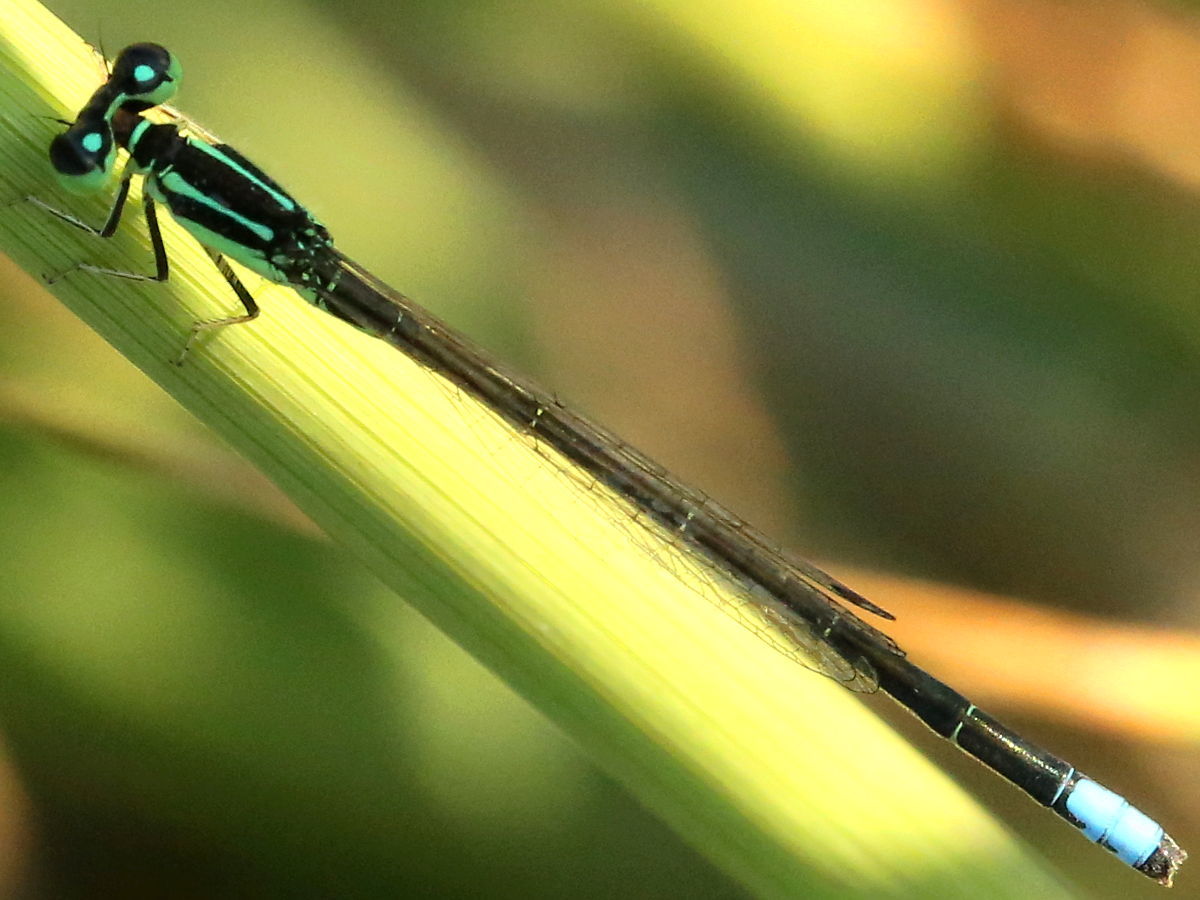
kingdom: Animalia
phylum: Arthropoda
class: Insecta
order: Odonata
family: Coenagrionidae
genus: Ischnura
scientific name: Ischnura verticalis
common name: Eastern forktail
